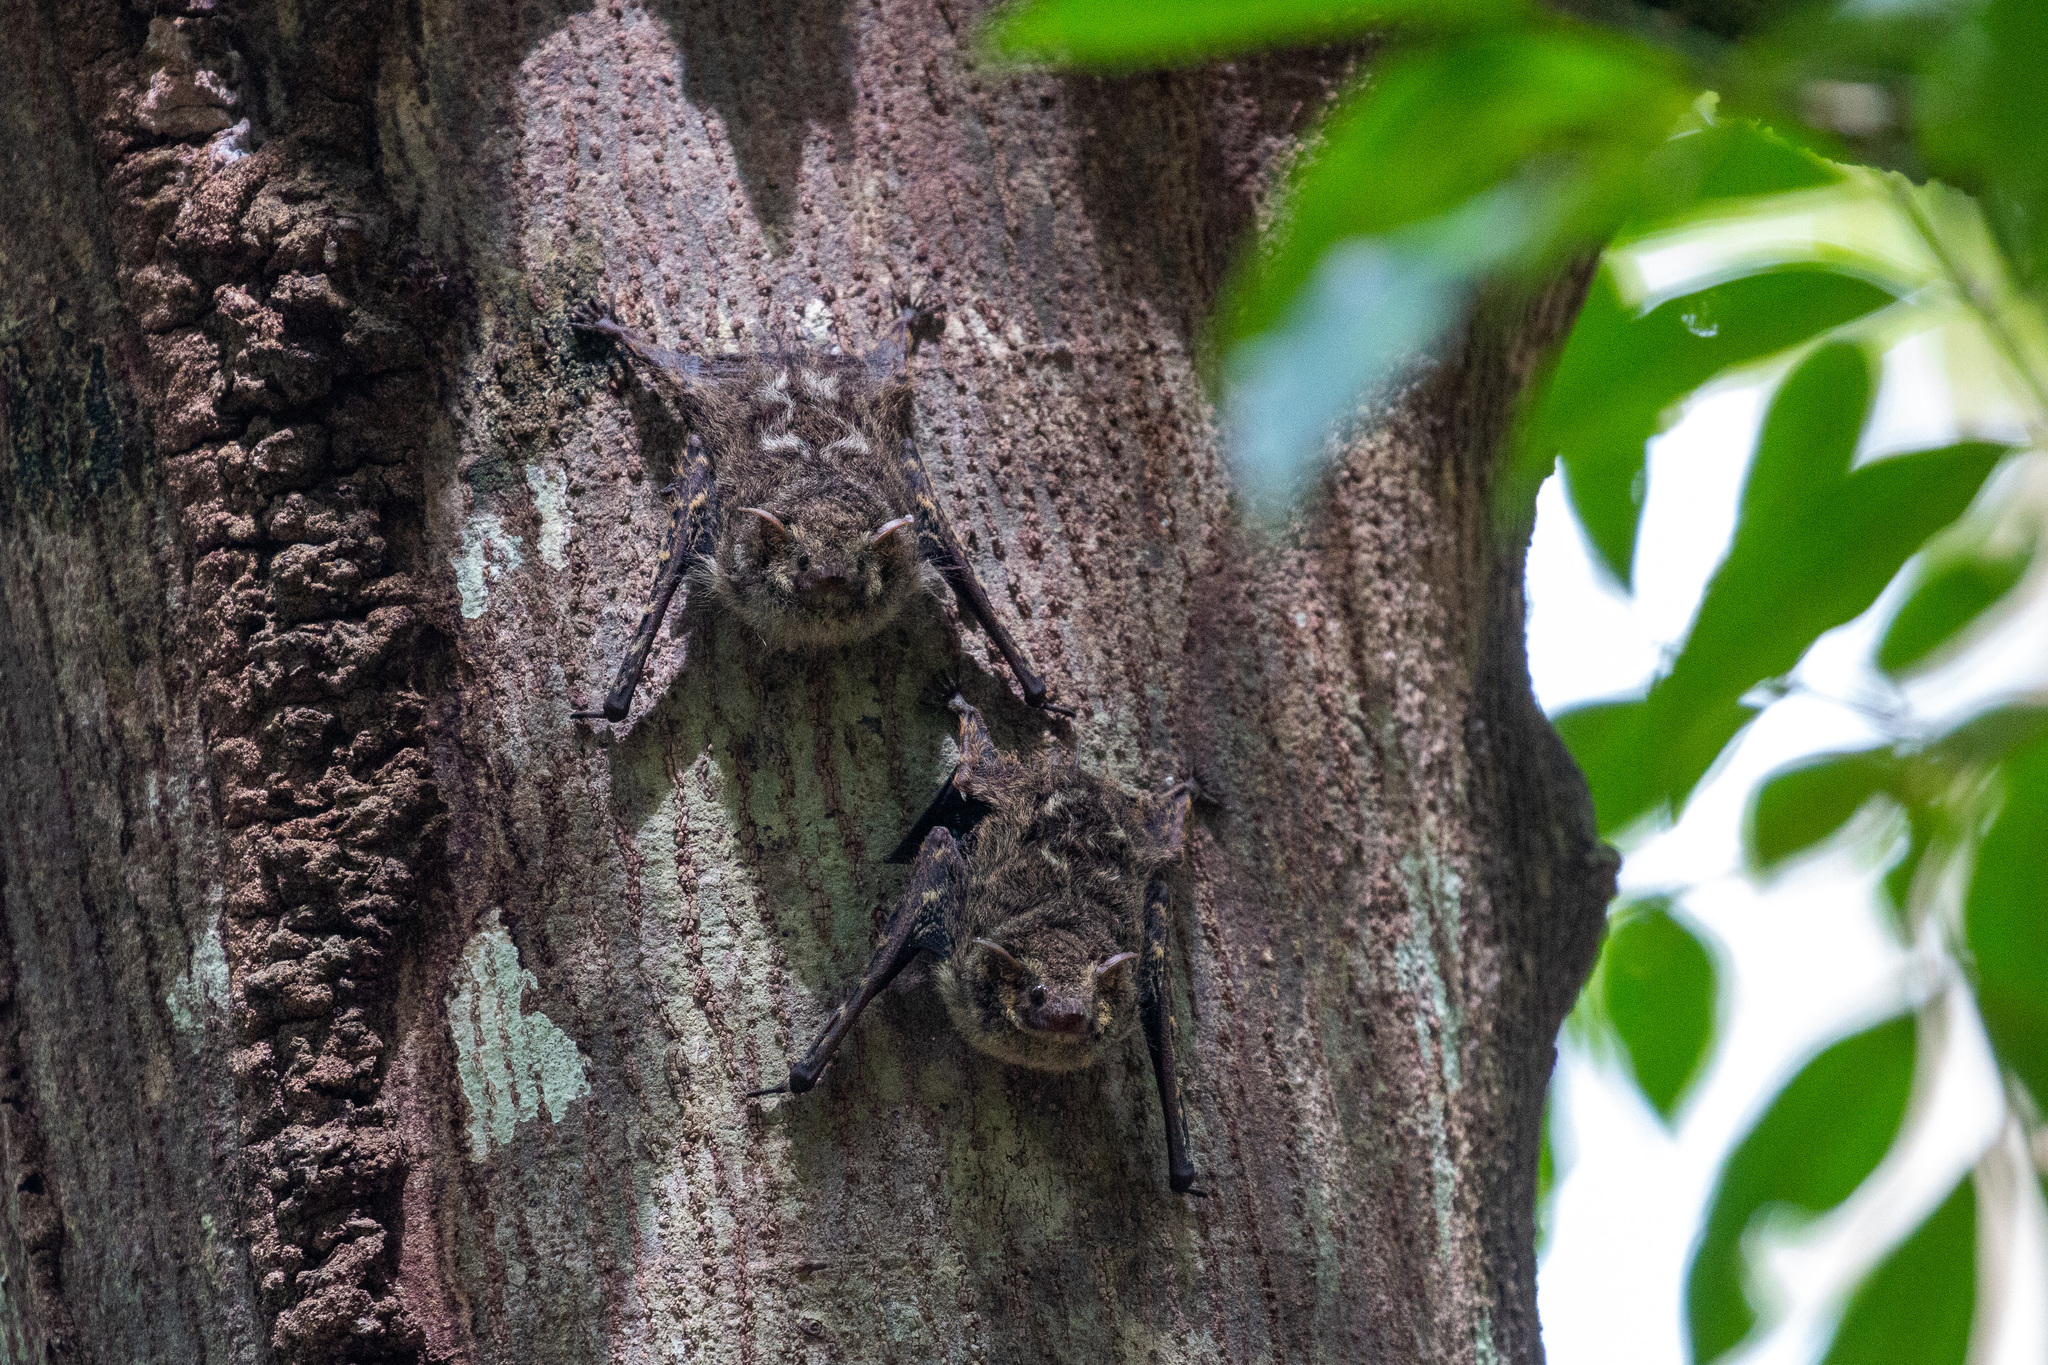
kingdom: Animalia
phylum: Chordata
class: Mammalia
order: Chiroptera
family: Emballonuridae
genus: Rhynchonycteris
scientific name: Rhynchonycteris naso
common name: Proboscis bat
